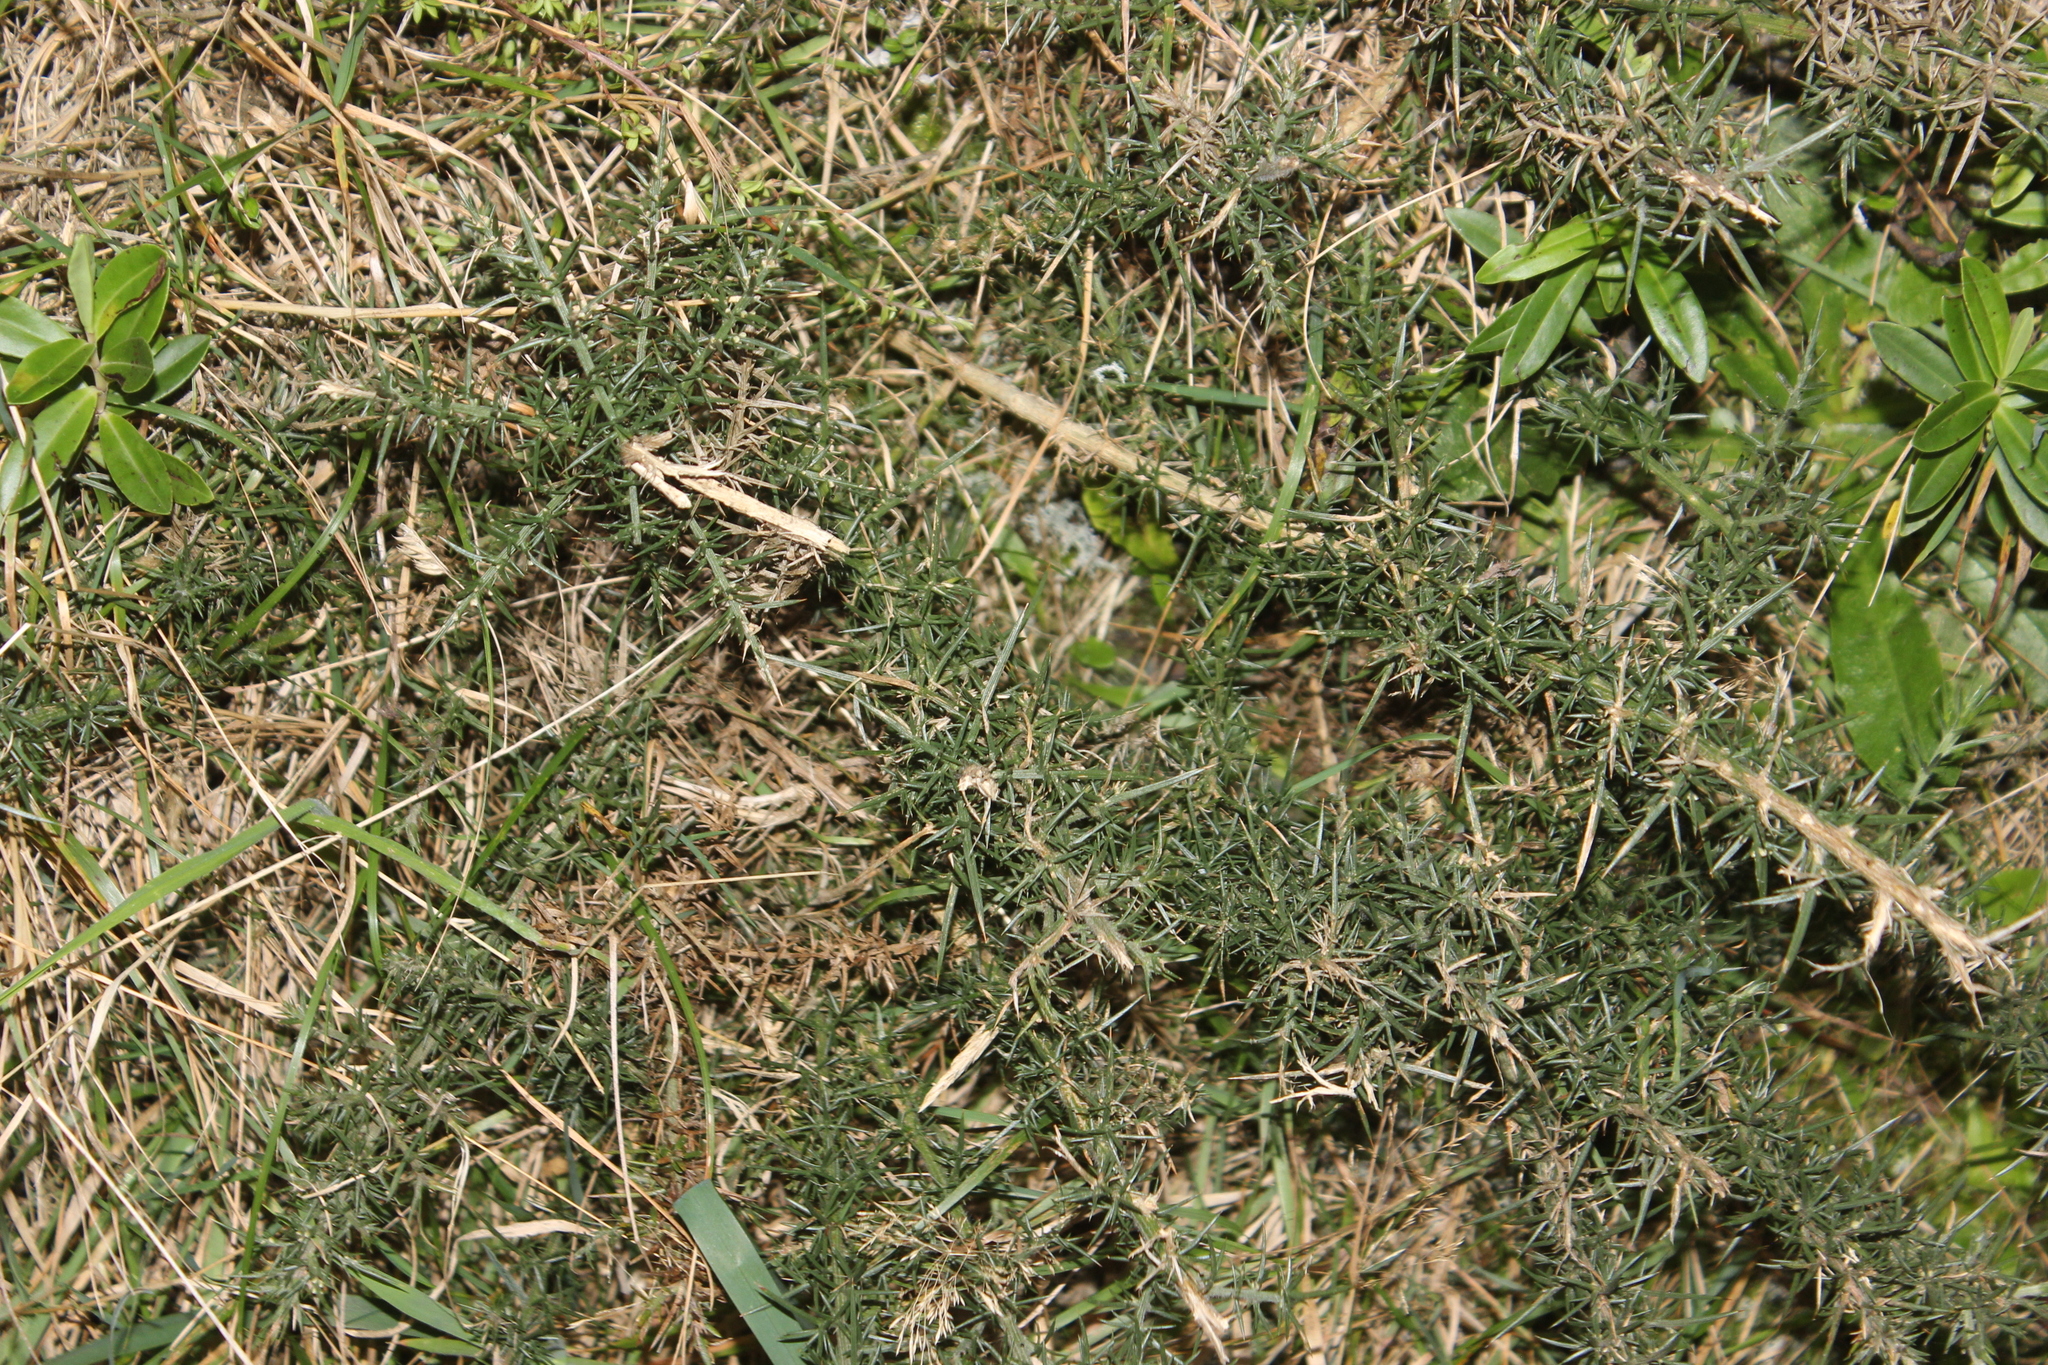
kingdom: Plantae
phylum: Tracheophyta
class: Magnoliopsida
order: Fabales
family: Fabaceae
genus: Ulex
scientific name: Ulex europaeus
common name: Common gorse
